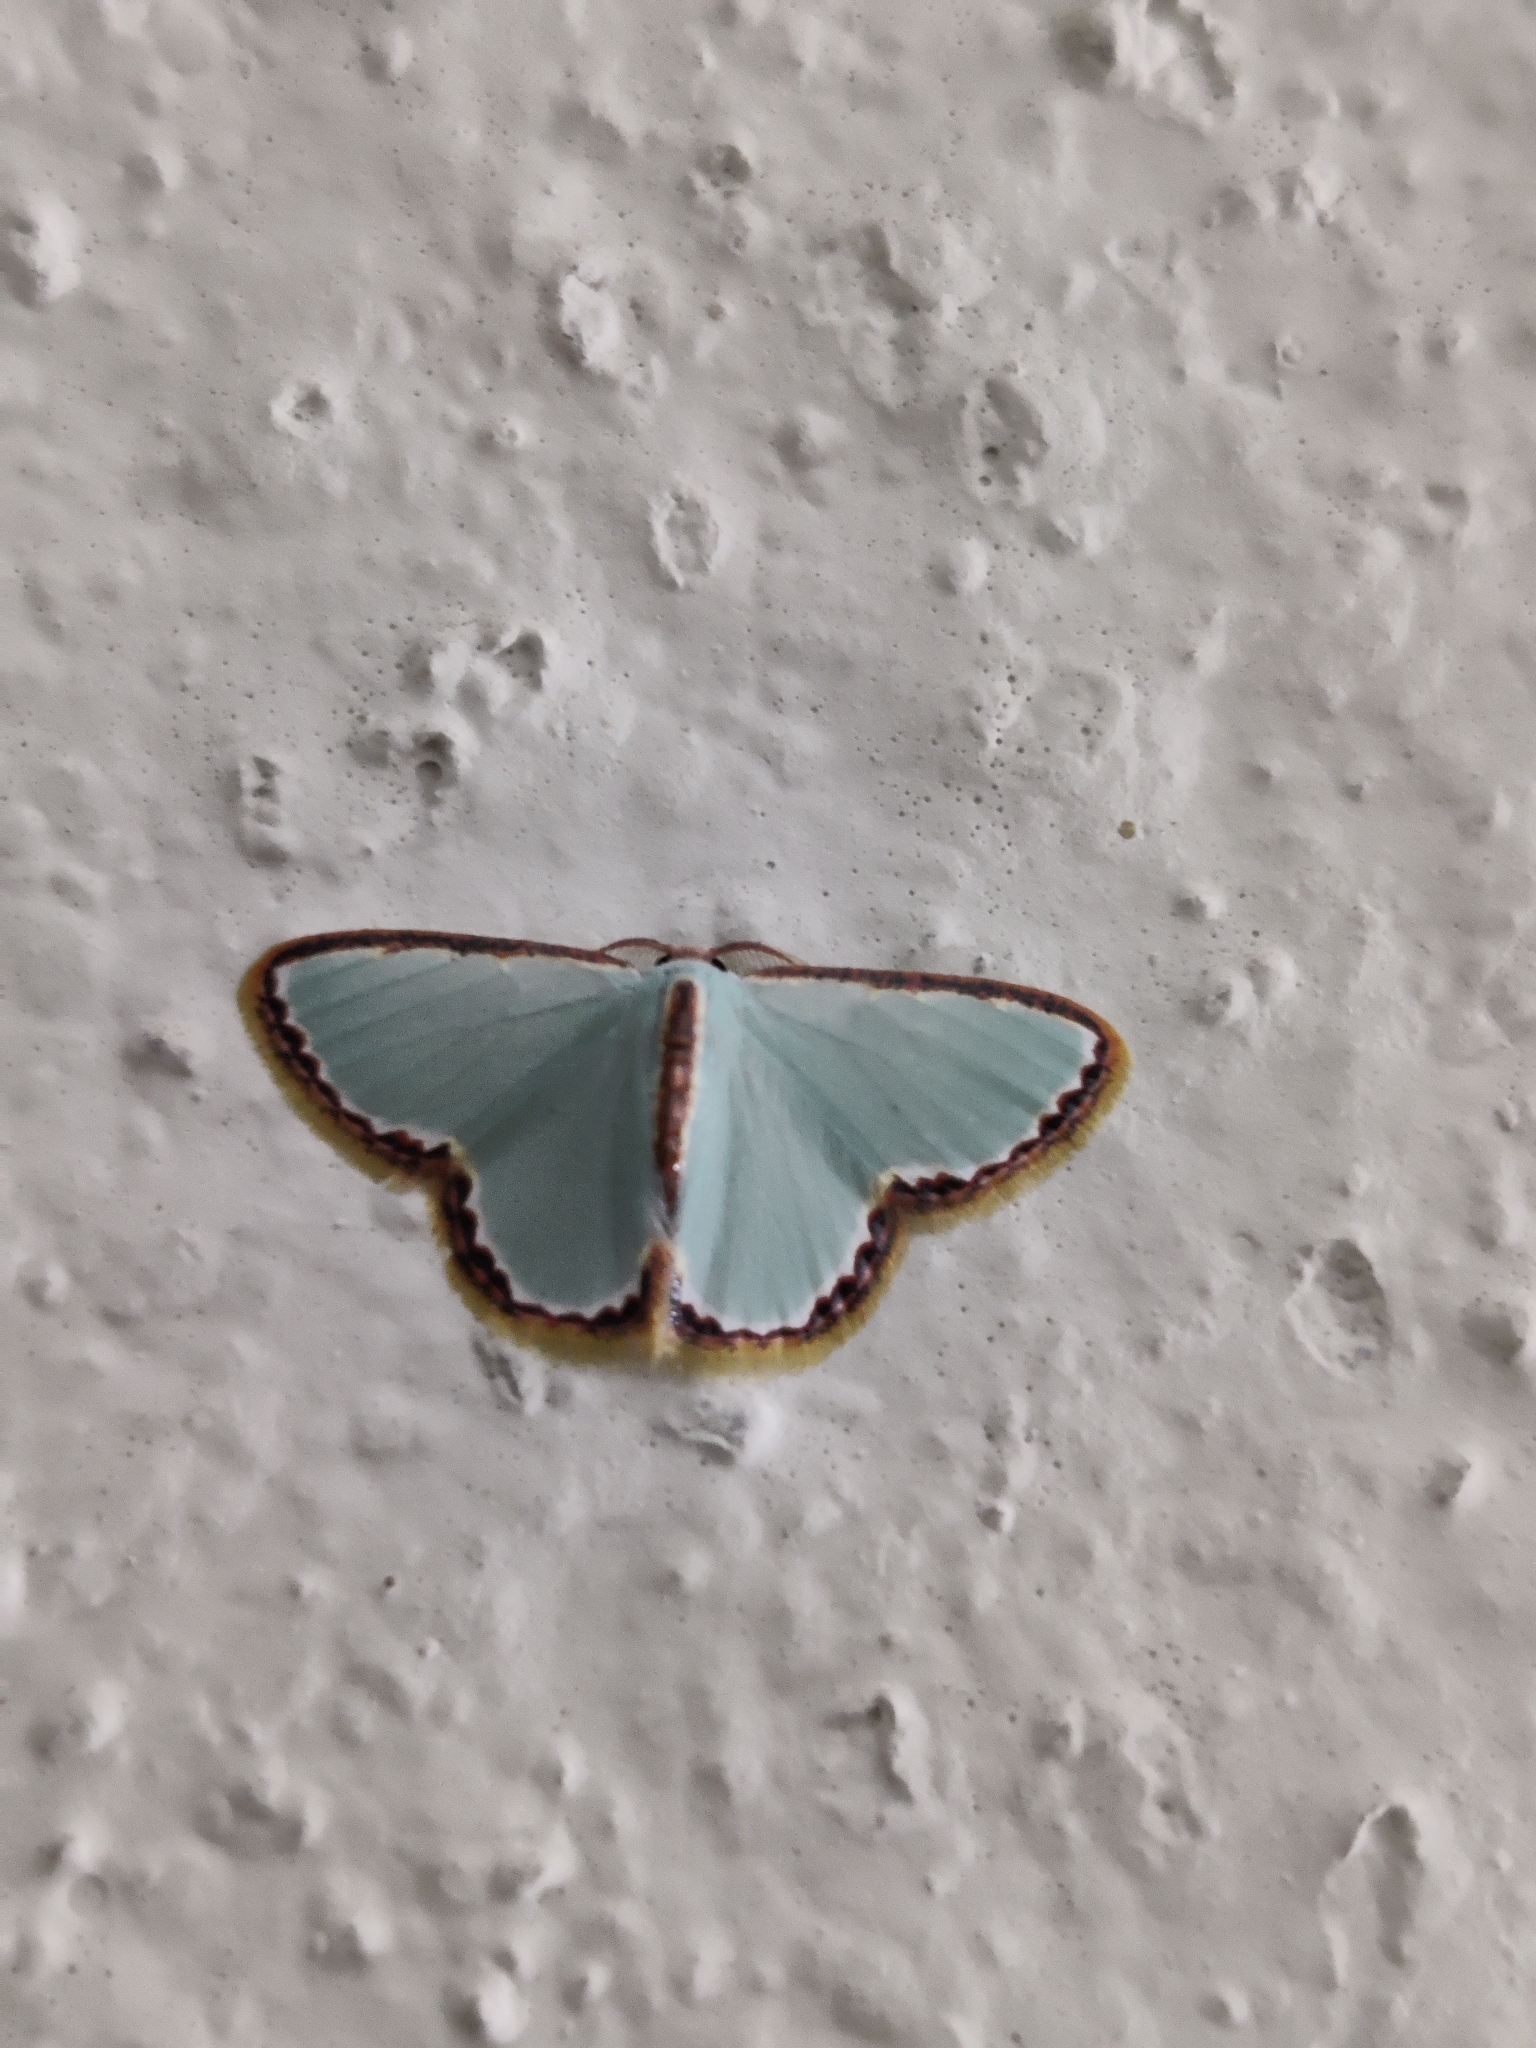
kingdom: Animalia
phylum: Arthropoda
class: Insecta
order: Lepidoptera
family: Geometridae
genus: Comostola
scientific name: Comostola pyrrhogona
